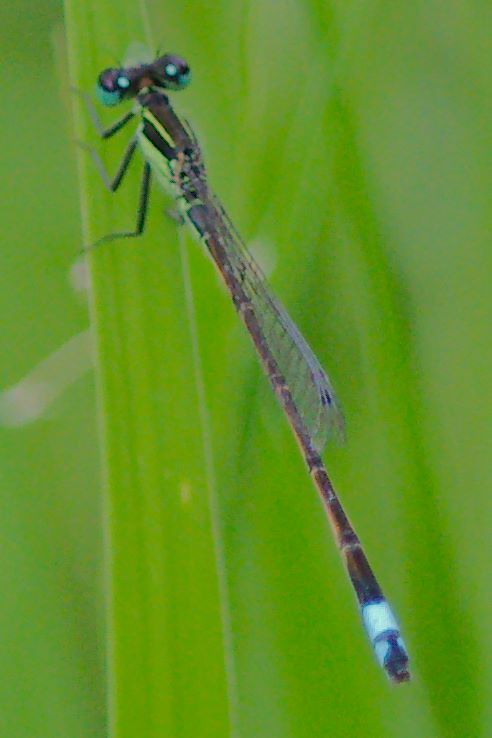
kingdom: Animalia
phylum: Arthropoda
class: Insecta
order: Odonata
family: Coenagrionidae
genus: Ischnura
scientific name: Ischnura ramburii
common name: Rambur's forktail
